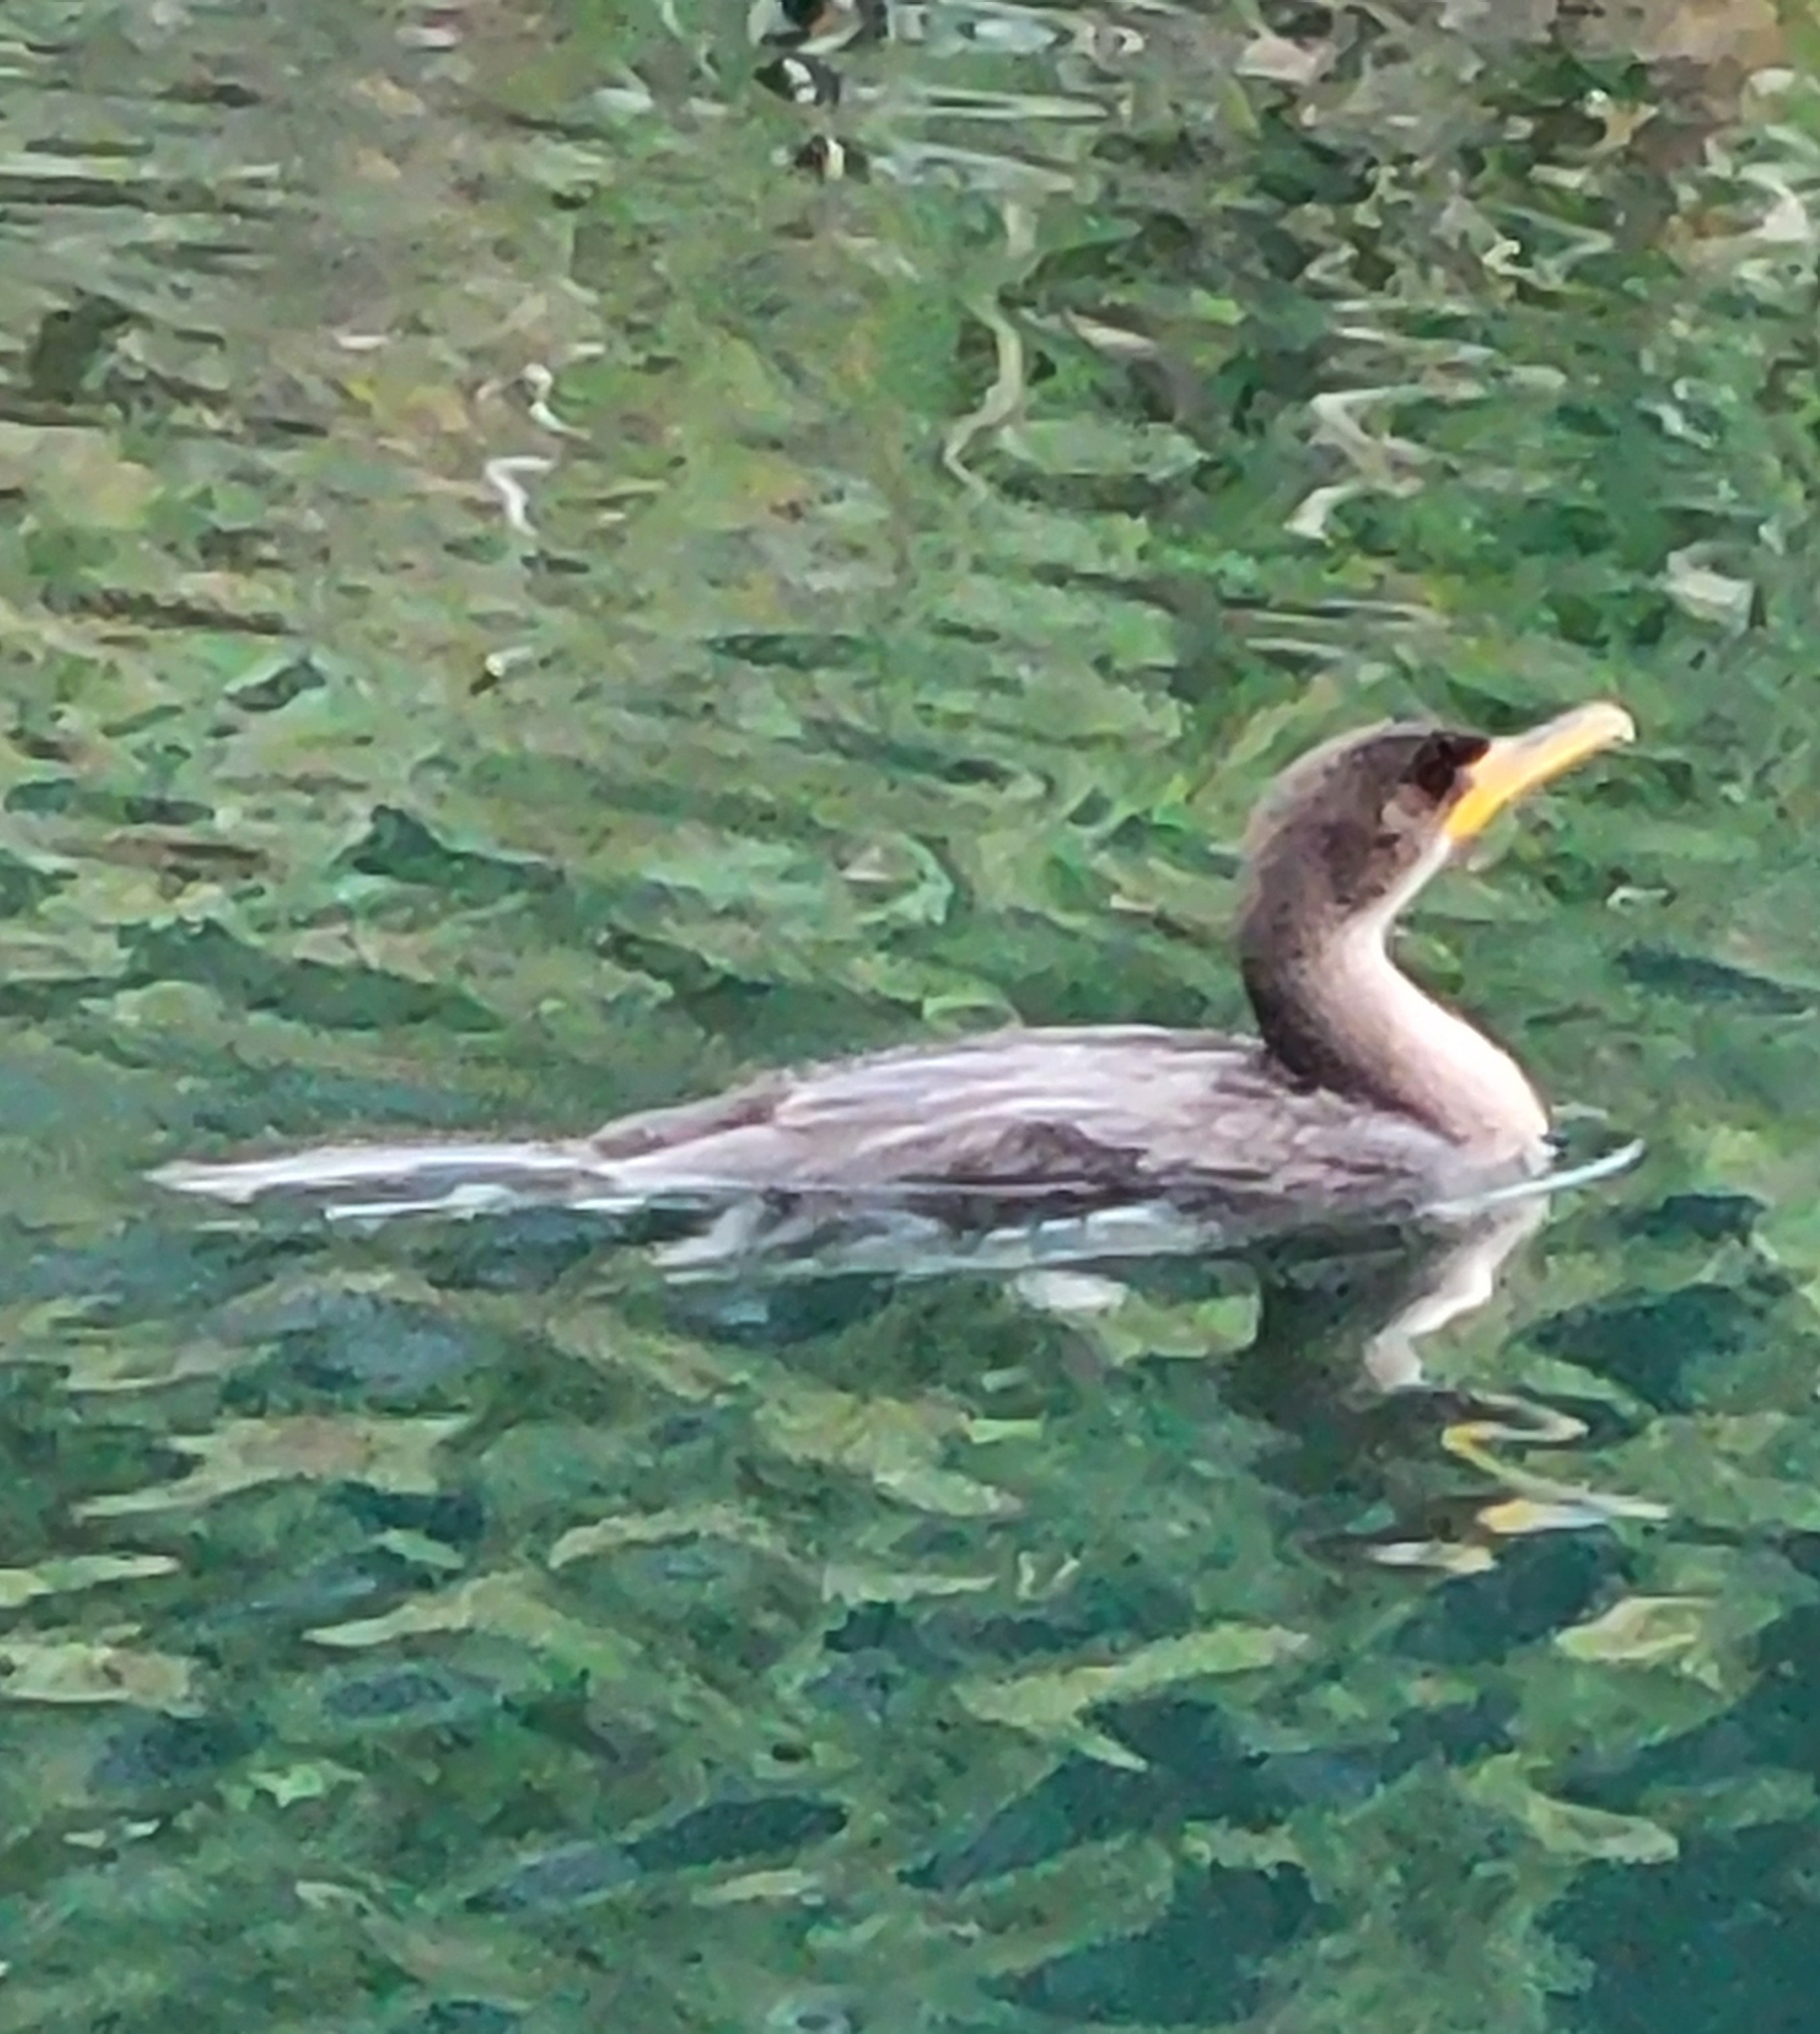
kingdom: Animalia
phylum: Chordata
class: Aves
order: Suliformes
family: Phalacrocoracidae
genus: Phalacrocorax
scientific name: Phalacrocorax auritus
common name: Double-crested cormorant
